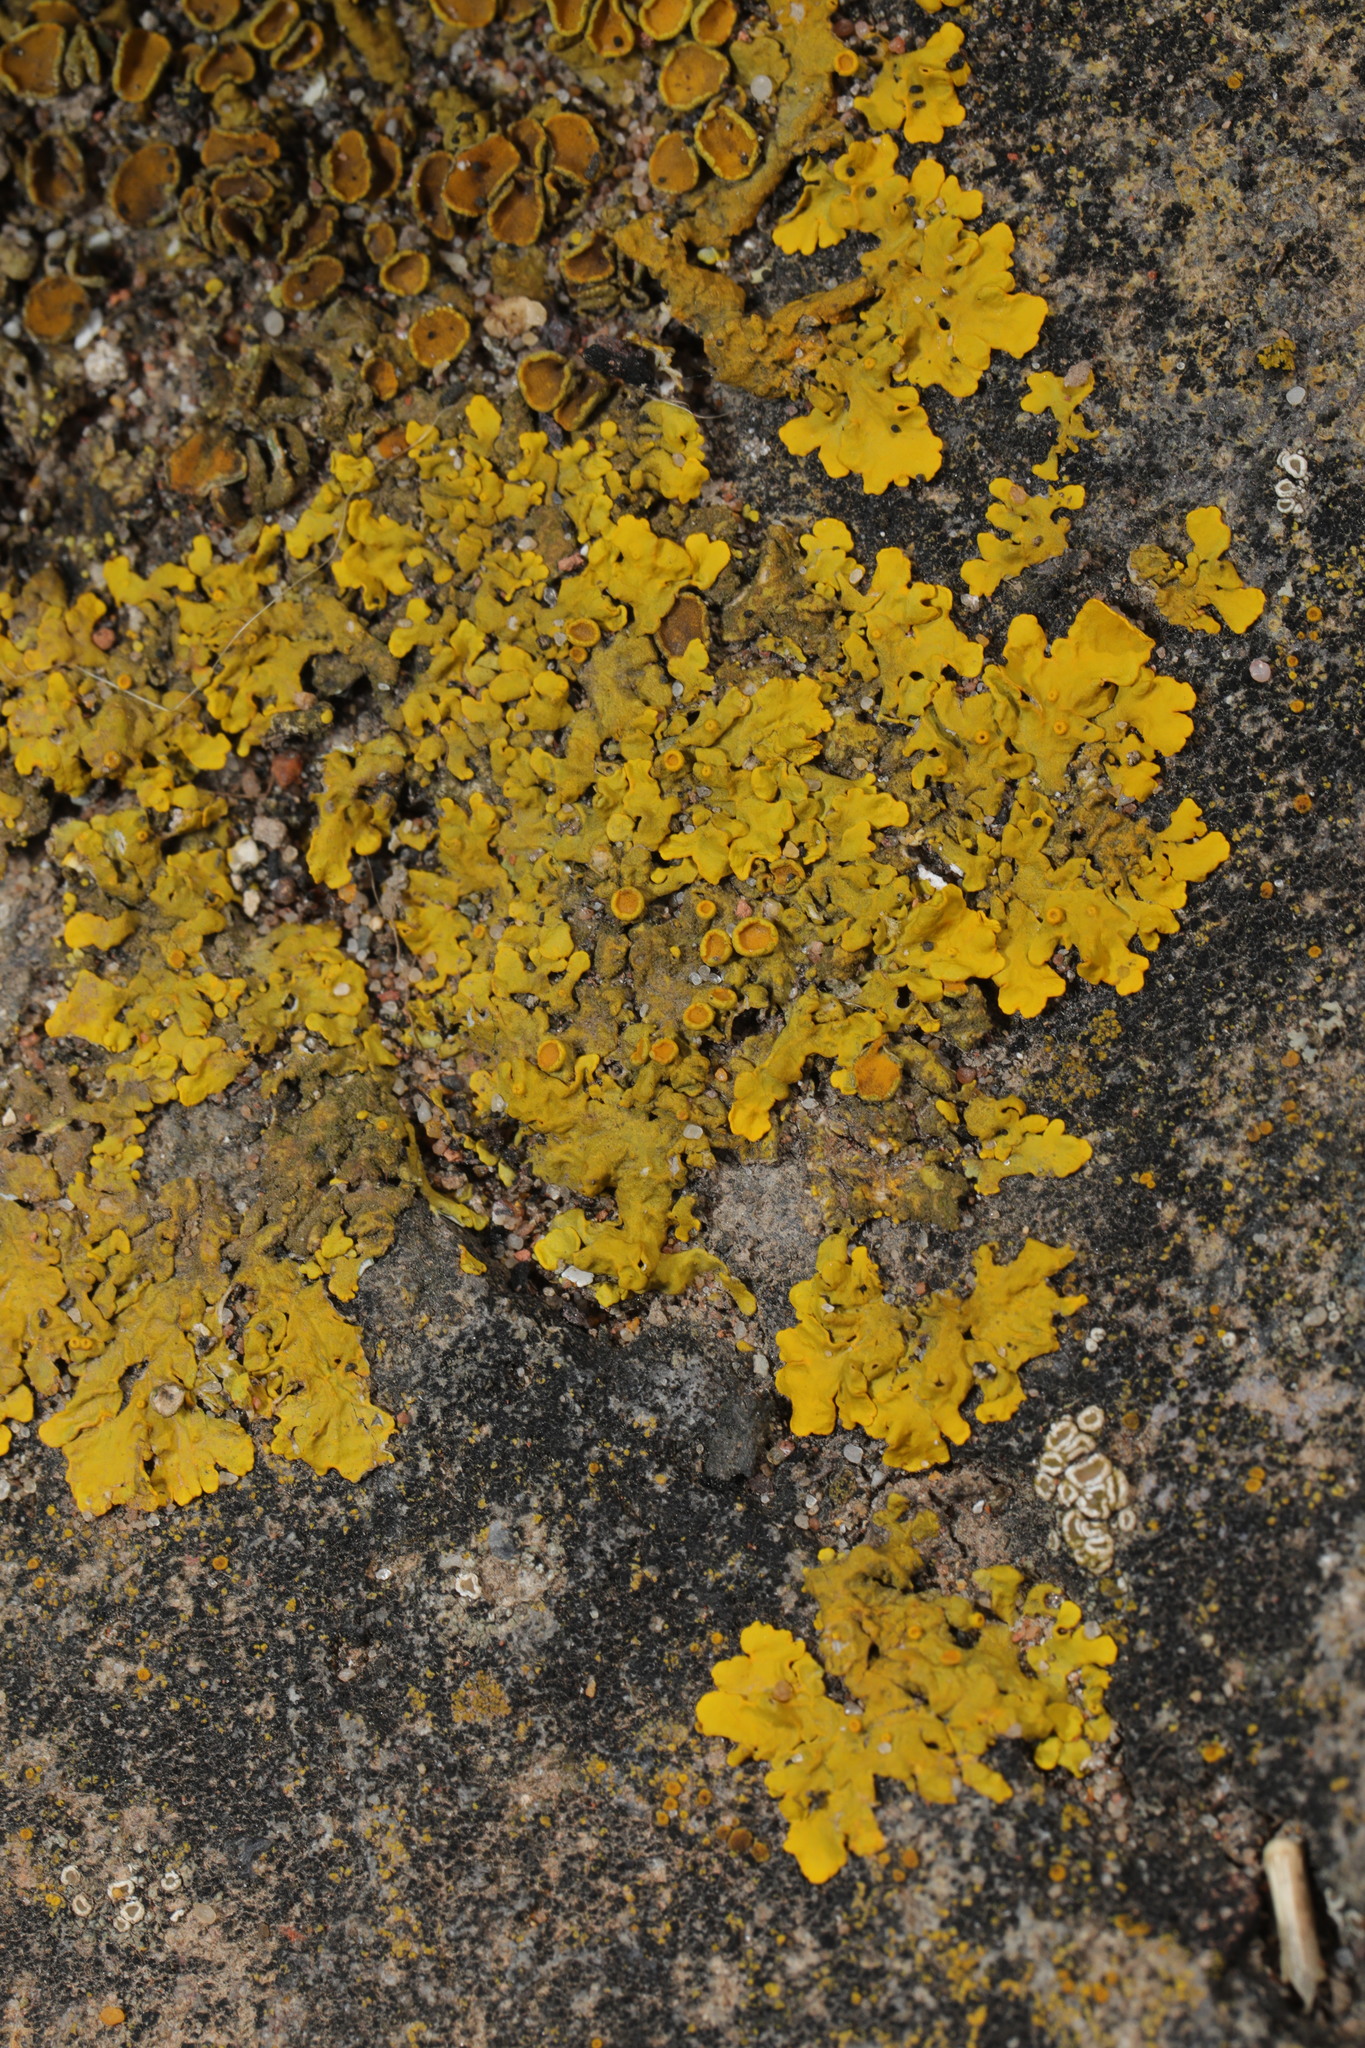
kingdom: Fungi
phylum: Ascomycota
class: Lecanoromycetes
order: Teloschistales
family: Teloschistaceae
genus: Xanthoria
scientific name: Xanthoria parietina
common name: Common orange lichen
